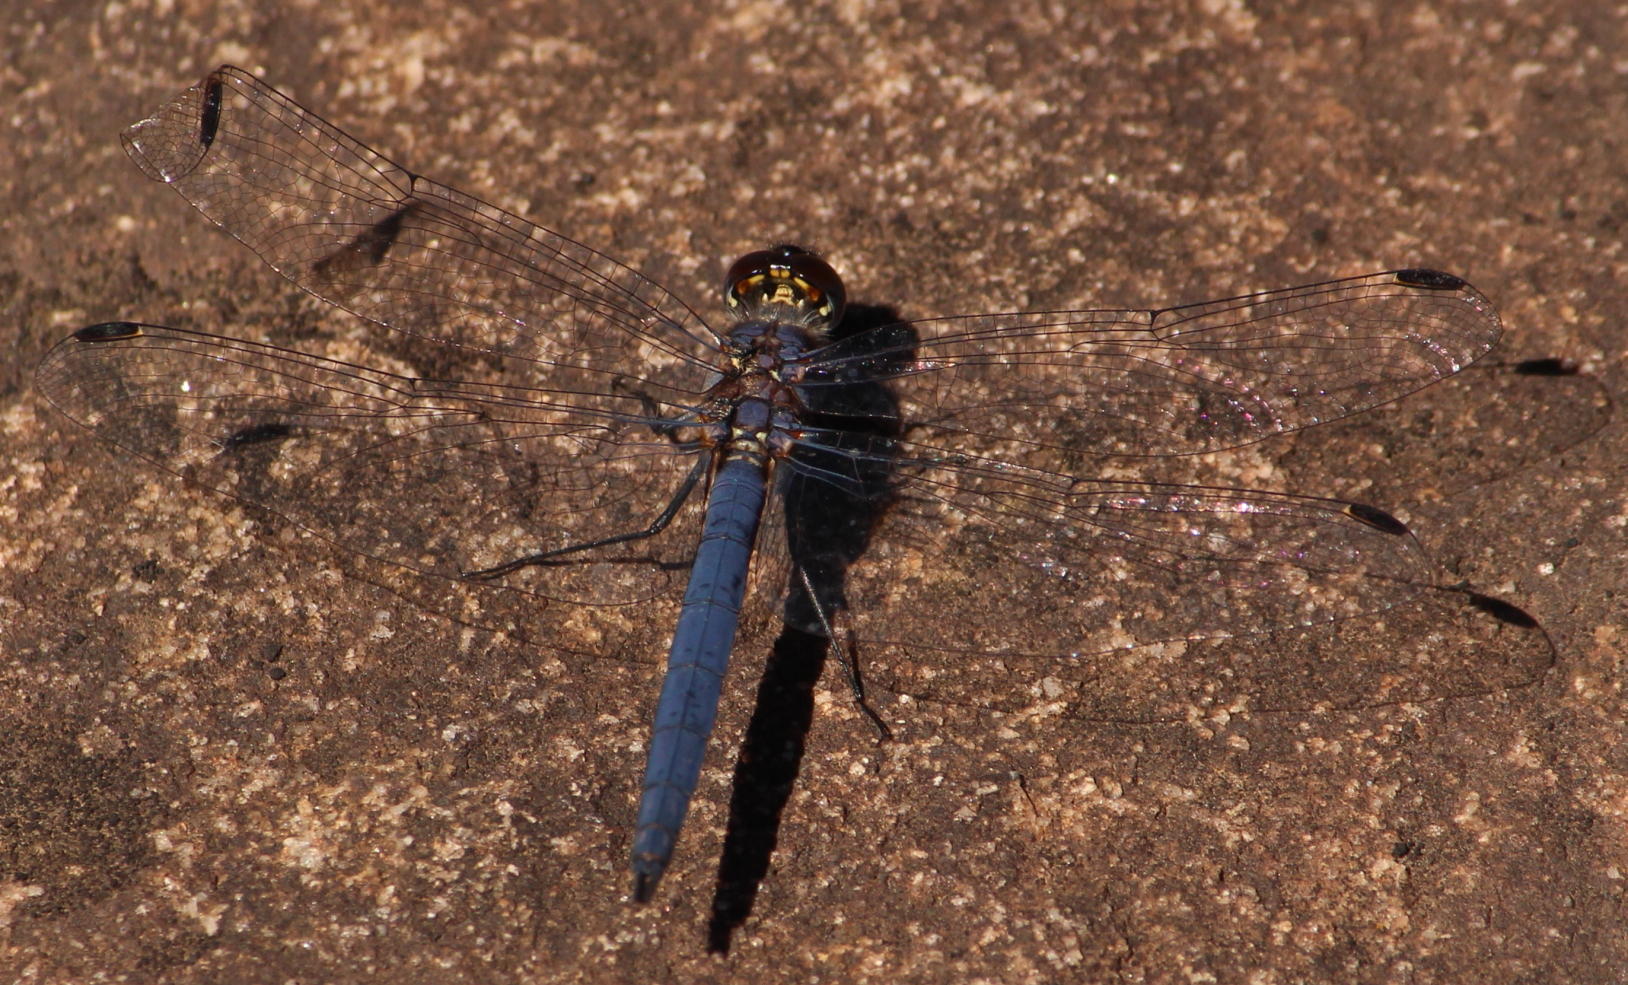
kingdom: Animalia
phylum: Arthropoda
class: Insecta
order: Odonata
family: Libellulidae
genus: Trithemis
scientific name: Trithemis furva
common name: Dark dropwing
